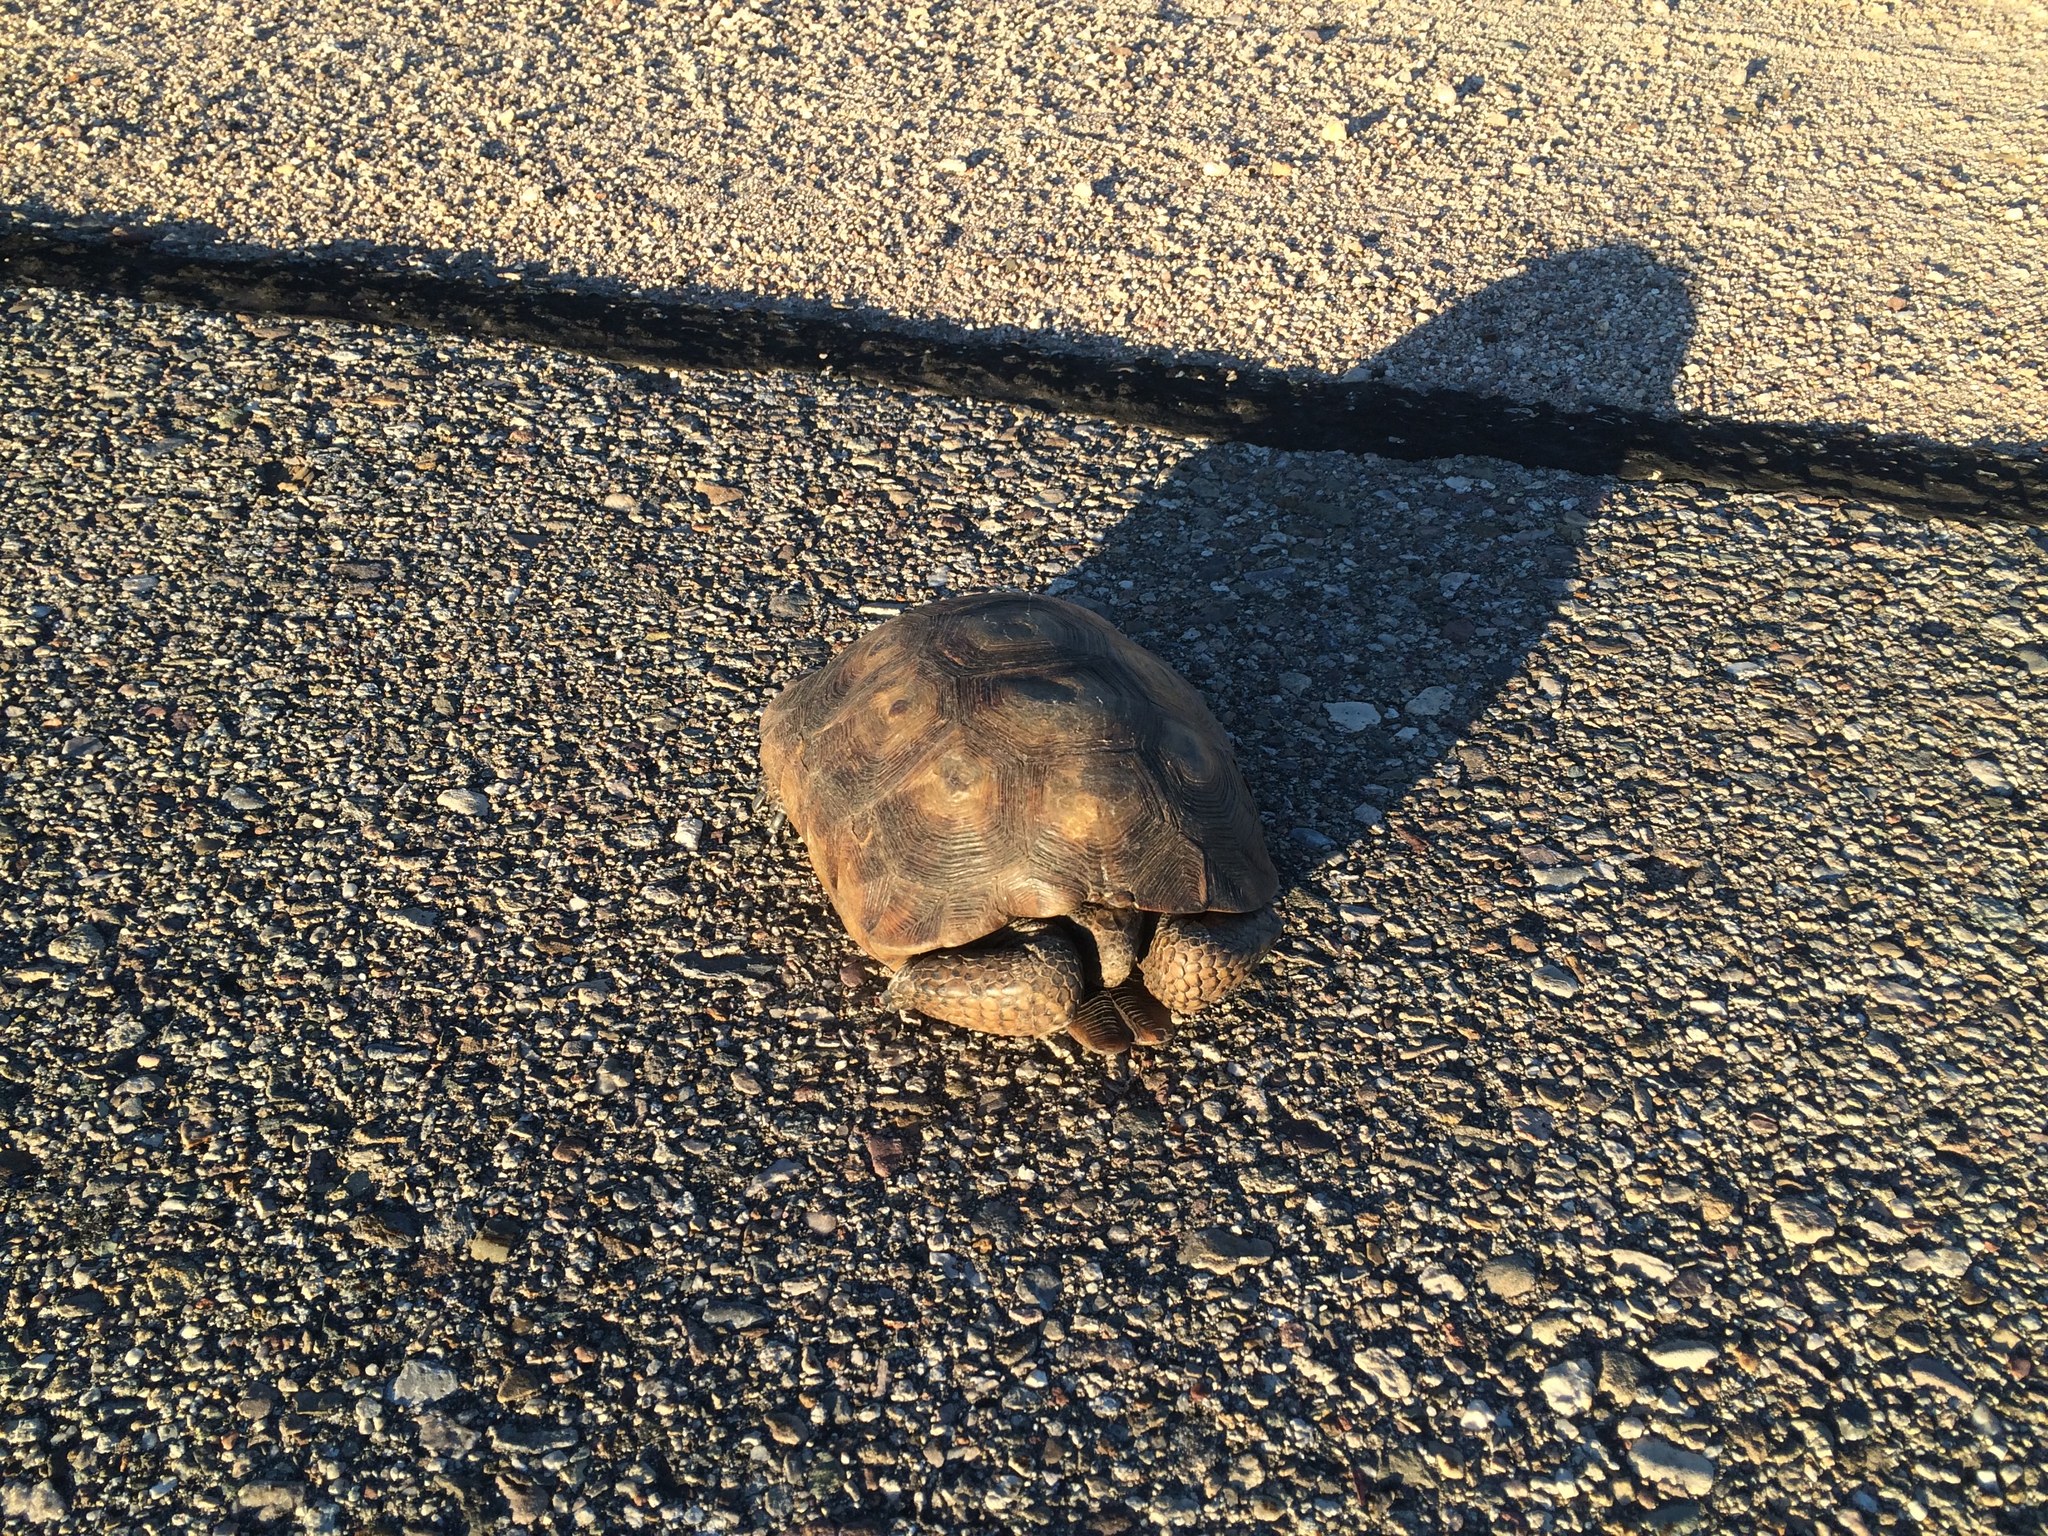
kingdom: Animalia
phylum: Chordata
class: Testudines
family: Testudinidae
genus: Gopherus
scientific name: Gopherus morafkai
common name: Sonoran desert tortoise
